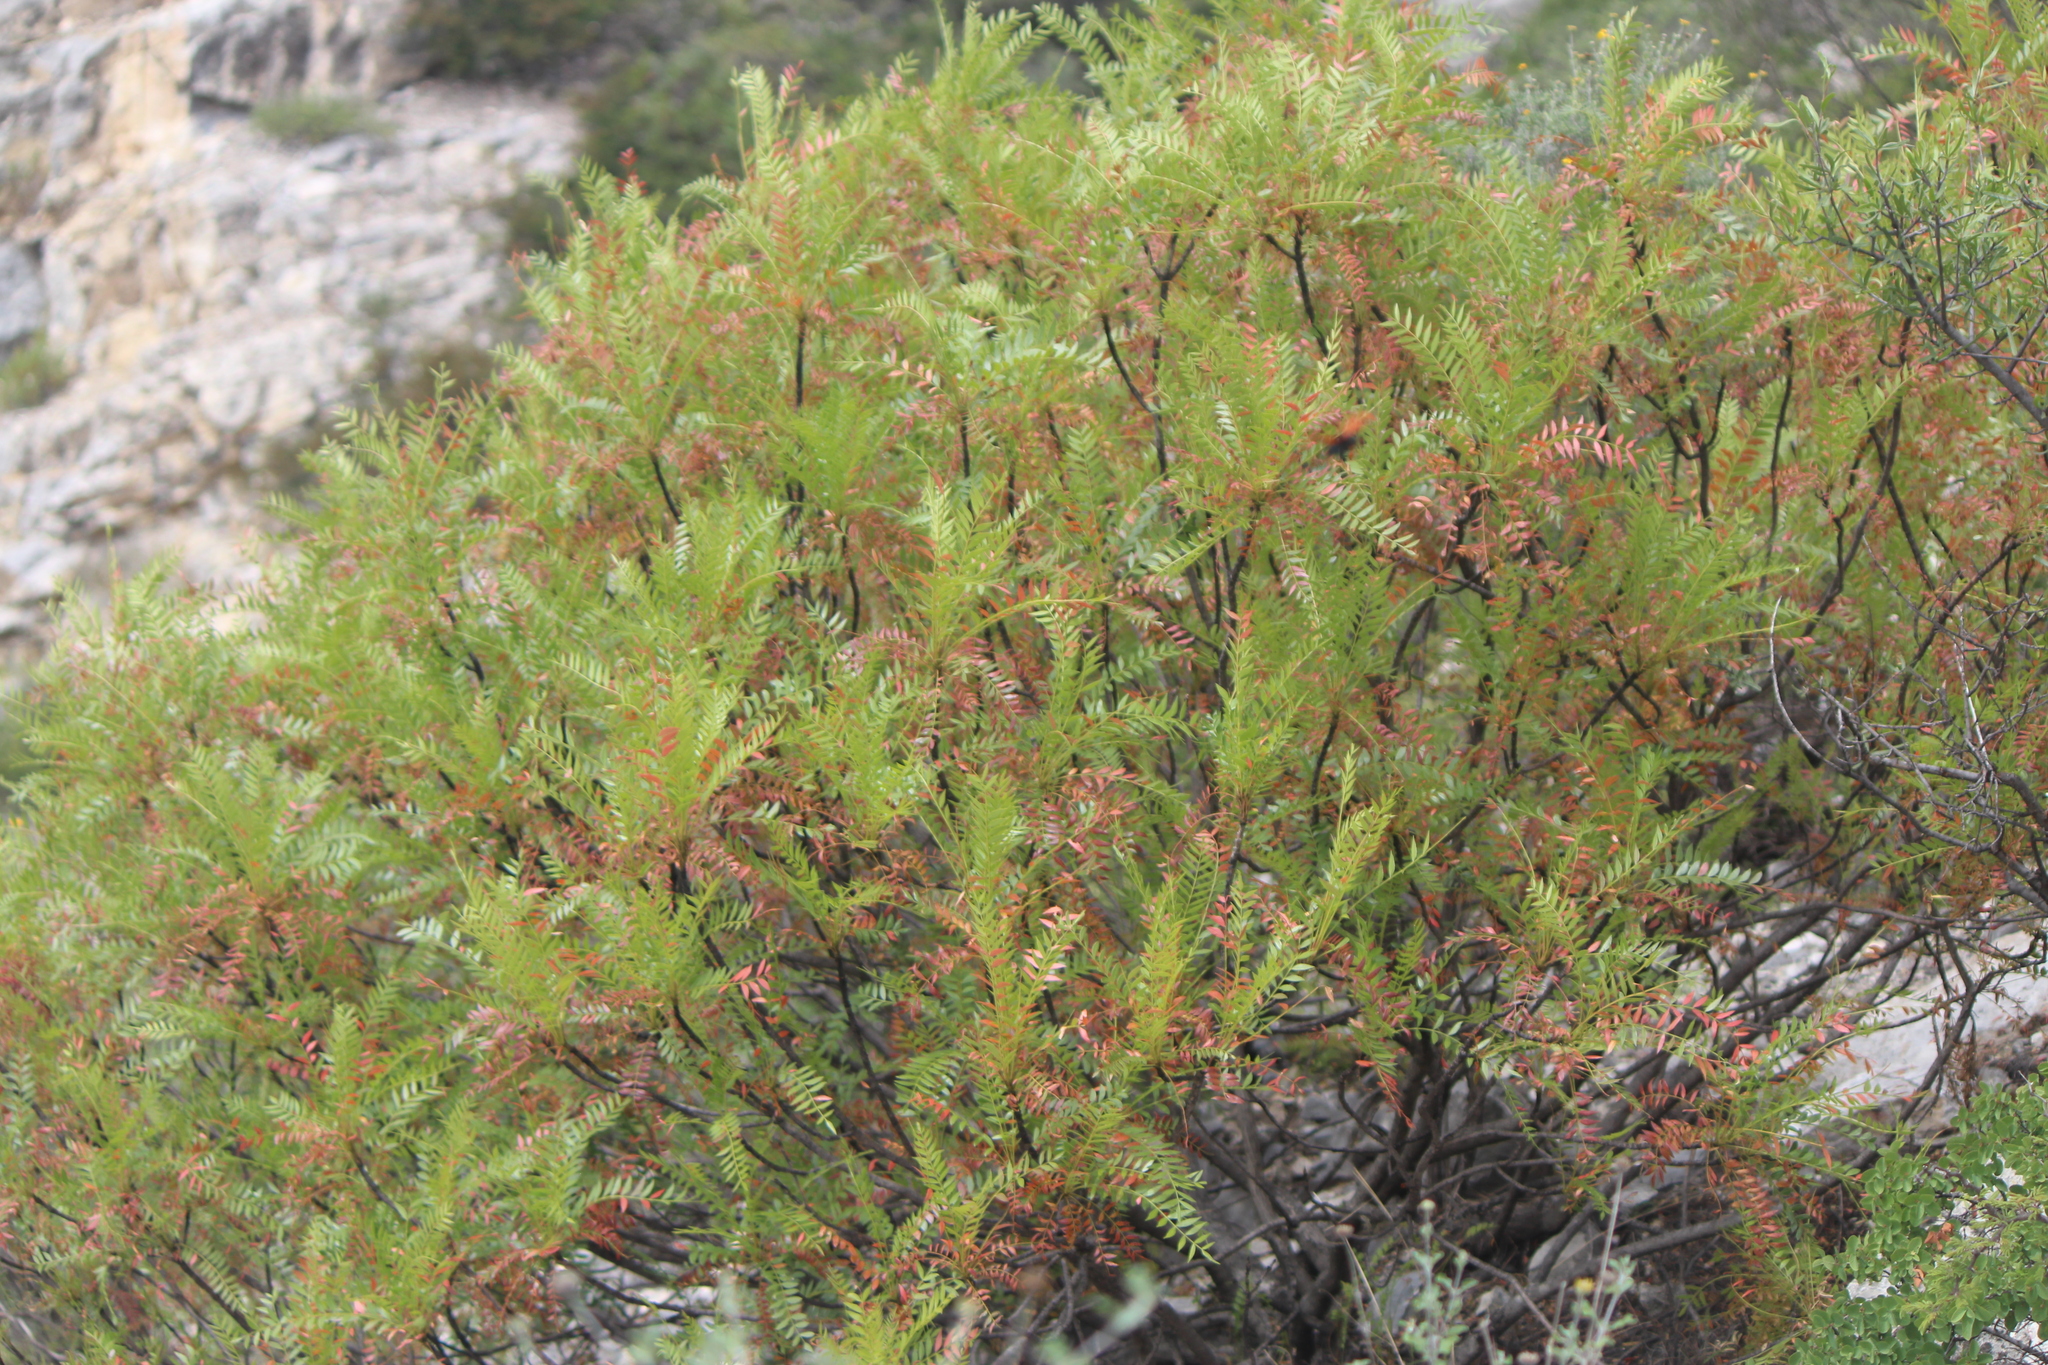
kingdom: Plantae
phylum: Tracheophyta
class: Magnoliopsida
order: Sapindales
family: Anacardiaceae
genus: Pseudosmodingium
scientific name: Pseudosmodingium andrieuxii
